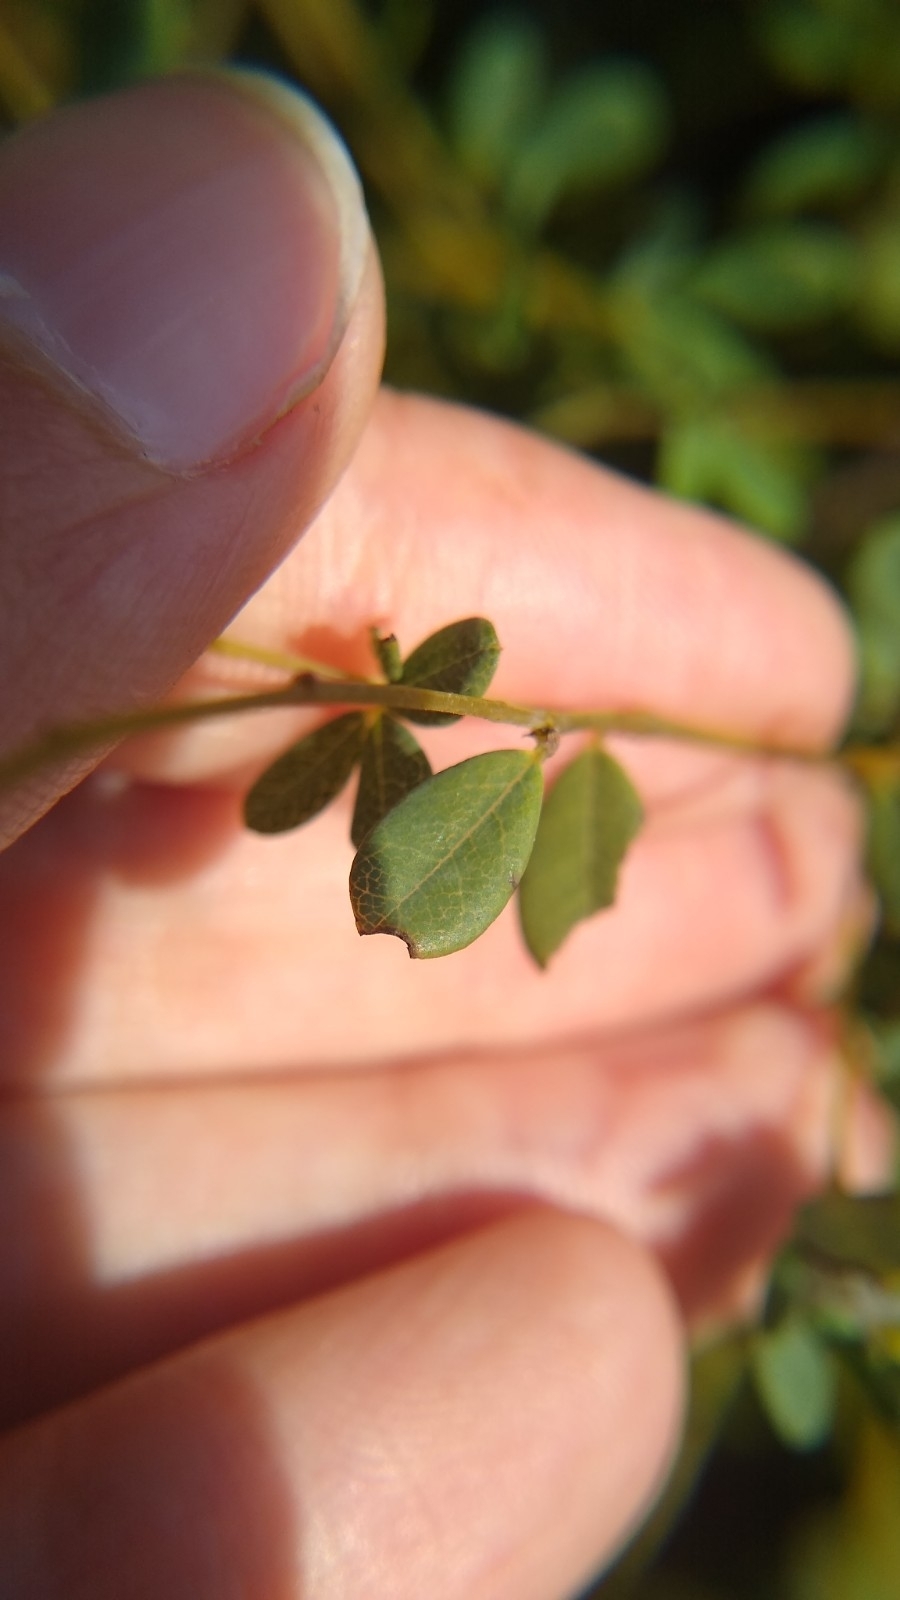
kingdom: Plantae
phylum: Tracheophyta
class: Magnoliopsida
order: Fabales
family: Fabaceae
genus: Baptisia
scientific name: Baptisia tinctoria
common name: Wild indigo
